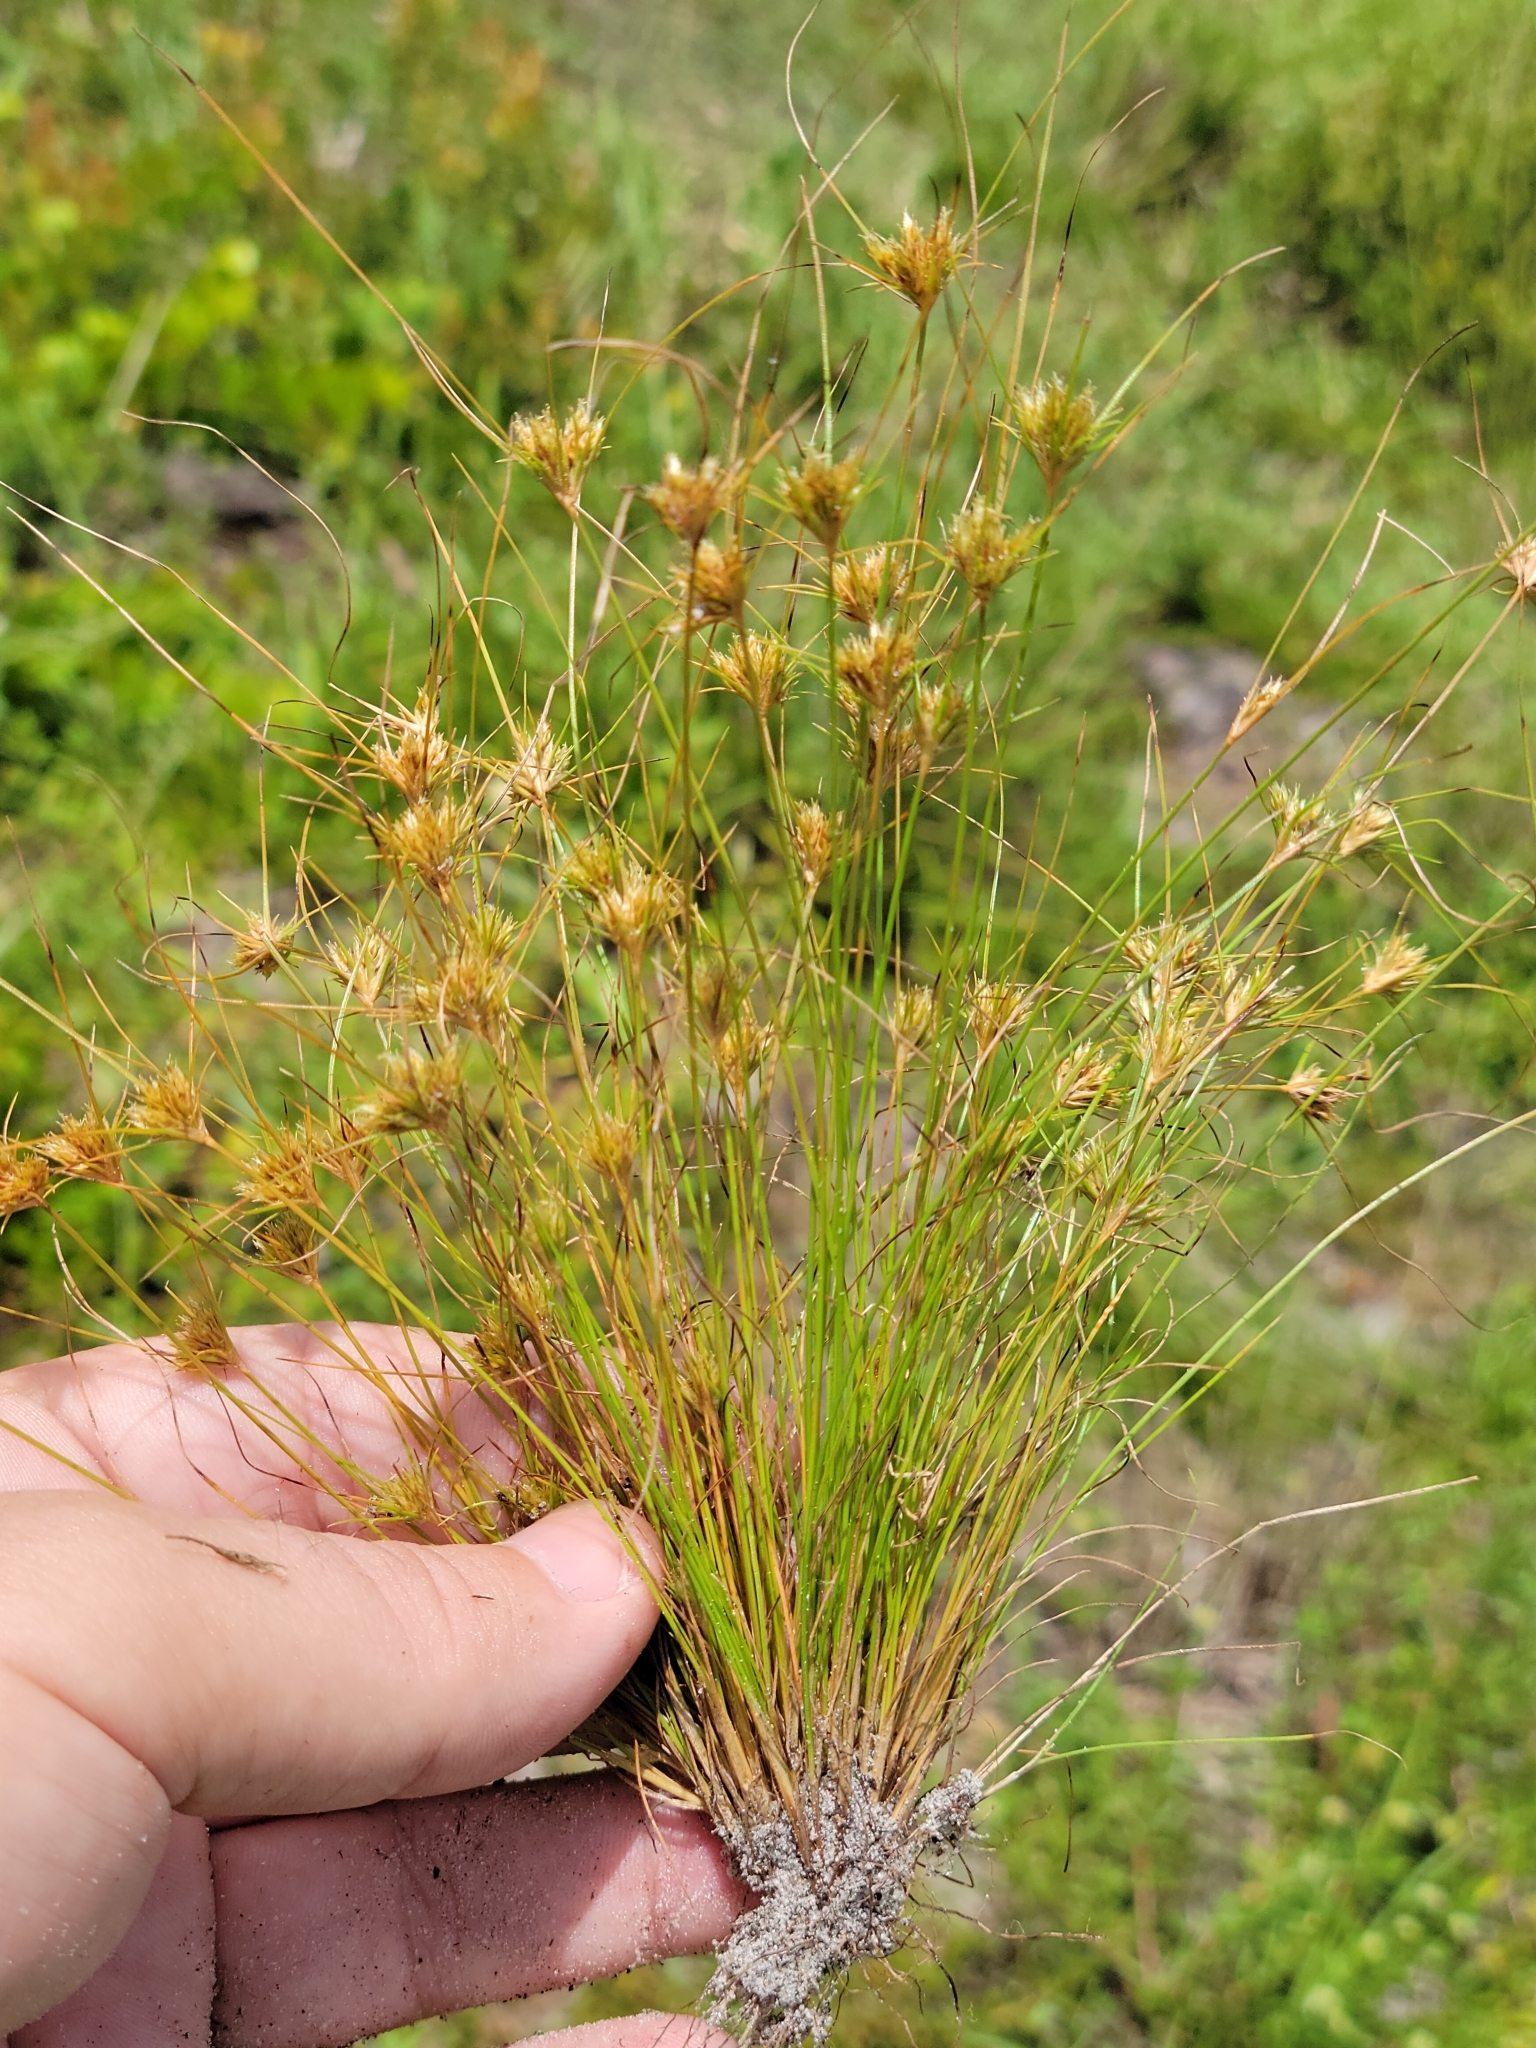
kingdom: Plantae
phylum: Tracheophyta
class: Liliopsida
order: Poales
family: Cyperaceae
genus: Bulbostylis
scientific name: Bulbostylis stenophylla
